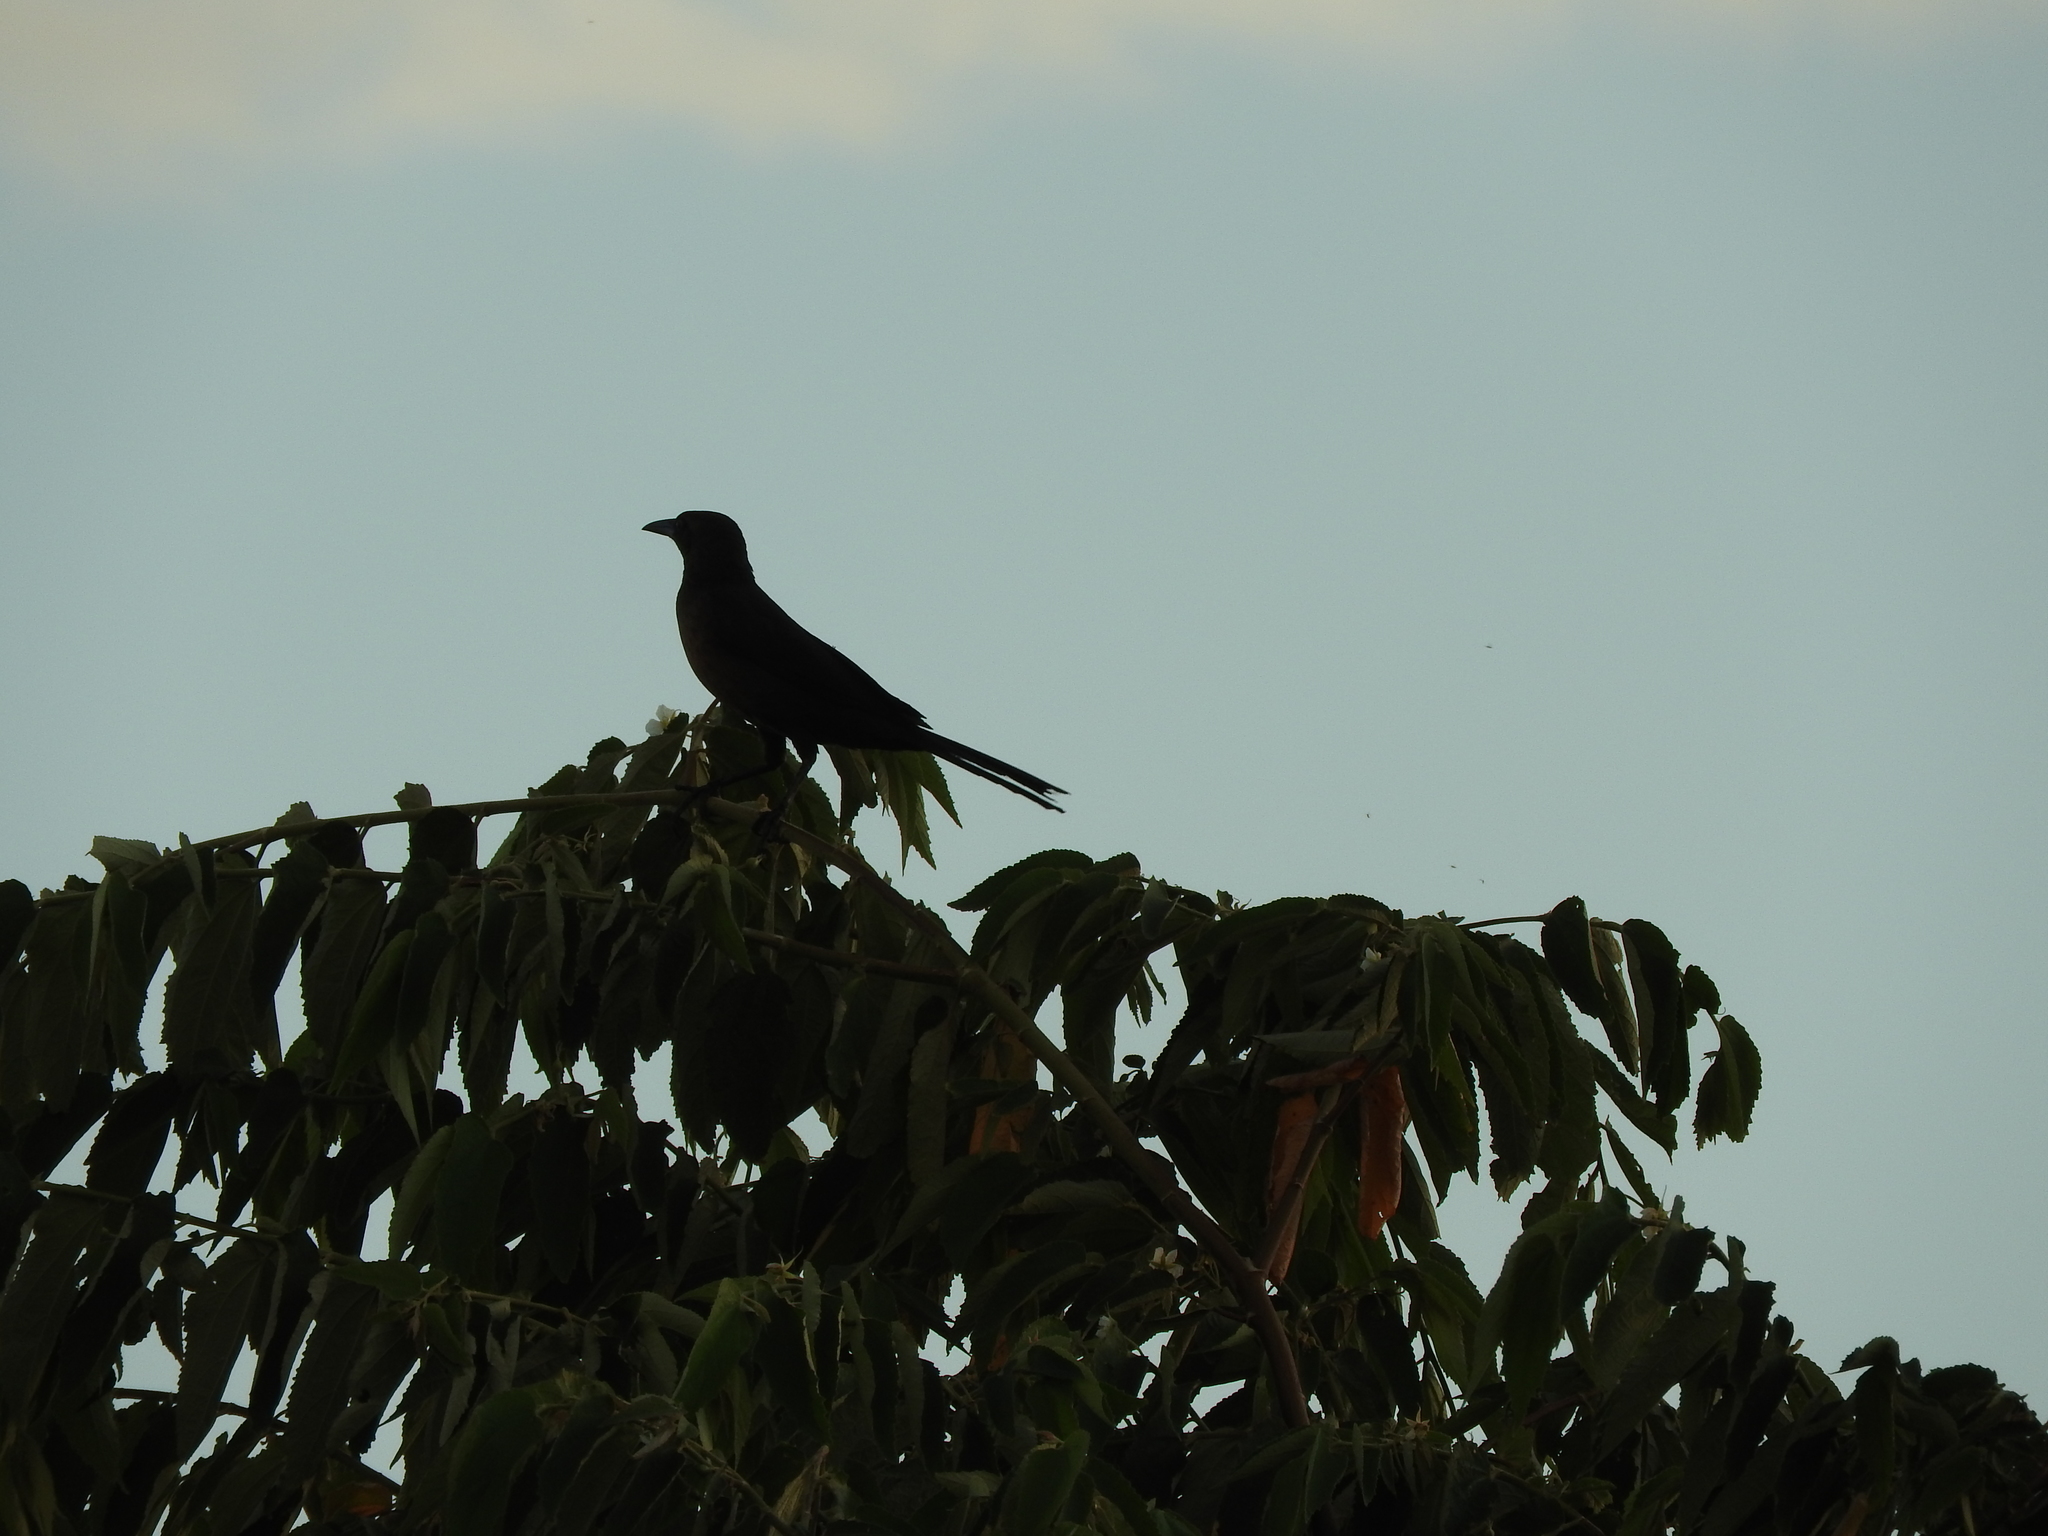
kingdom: Animalia
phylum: Chordata
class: Aves
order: Passeriformes
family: Icteridae
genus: Quiscalus
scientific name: Quiscalus mexicanus
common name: Great-tailed grackle
